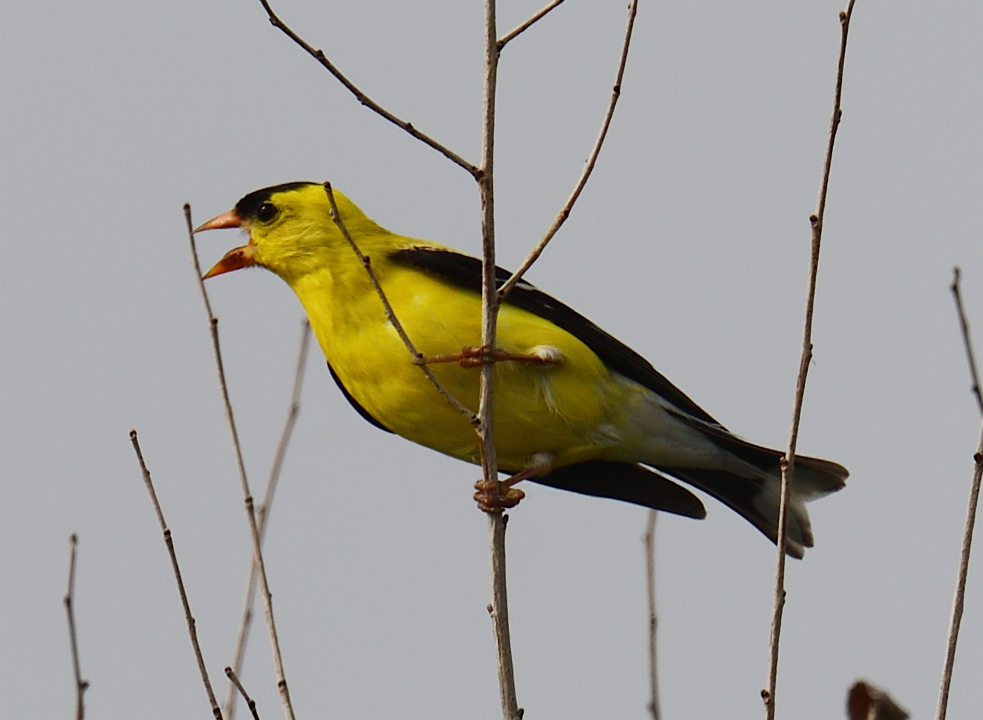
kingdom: Animalia
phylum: Chordata
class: Aves
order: Passeriformes
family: Fringillidae
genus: Spinus
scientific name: Spinus tristis
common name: American goldfinch
